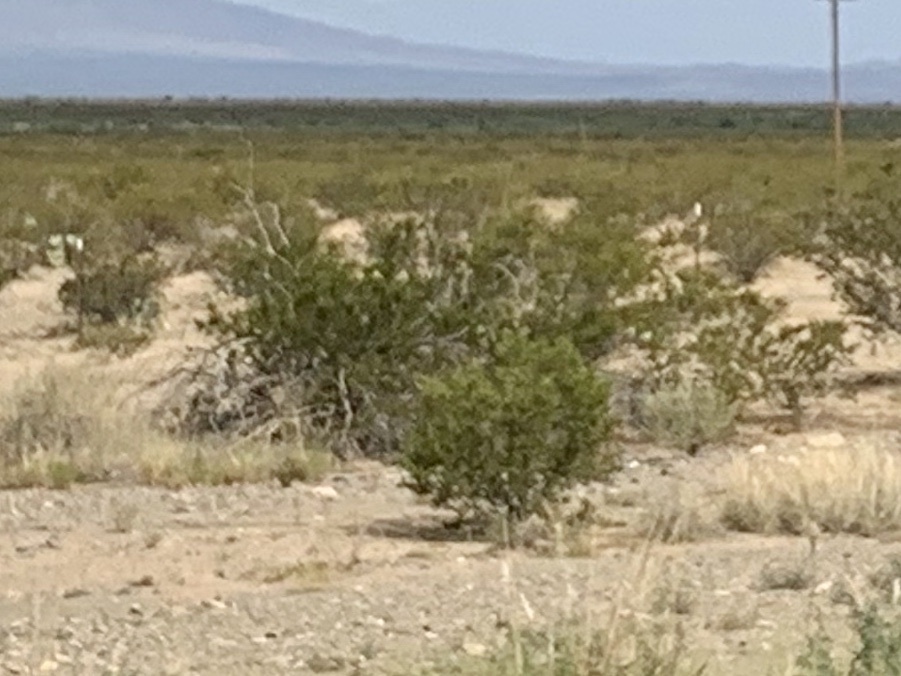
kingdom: Plantae
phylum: Tracheophyta
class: Magnoliopsida
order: Zygophyllales
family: Zygophyllaceae
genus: Larrea
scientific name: Larrea tridentata
